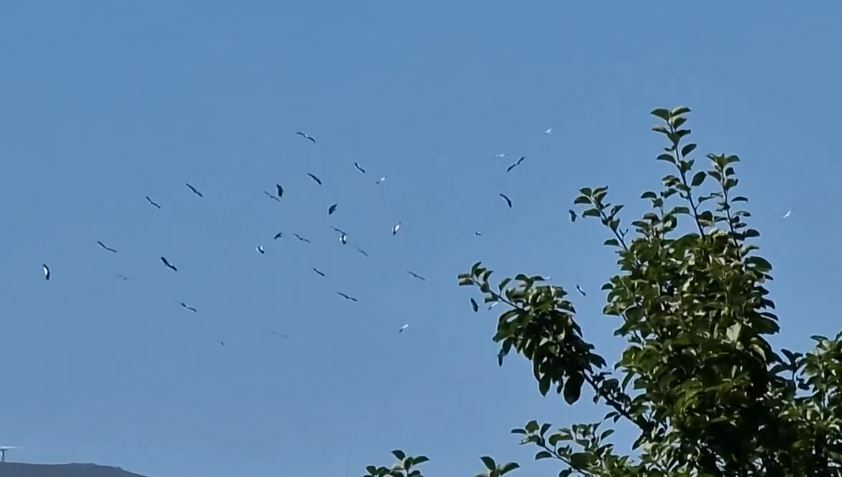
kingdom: Animalia
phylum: Chordata
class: Aves
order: Ciconiiformes
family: Ciconiidae
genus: Ciconia
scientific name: Ciconia ciconia
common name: White stork
